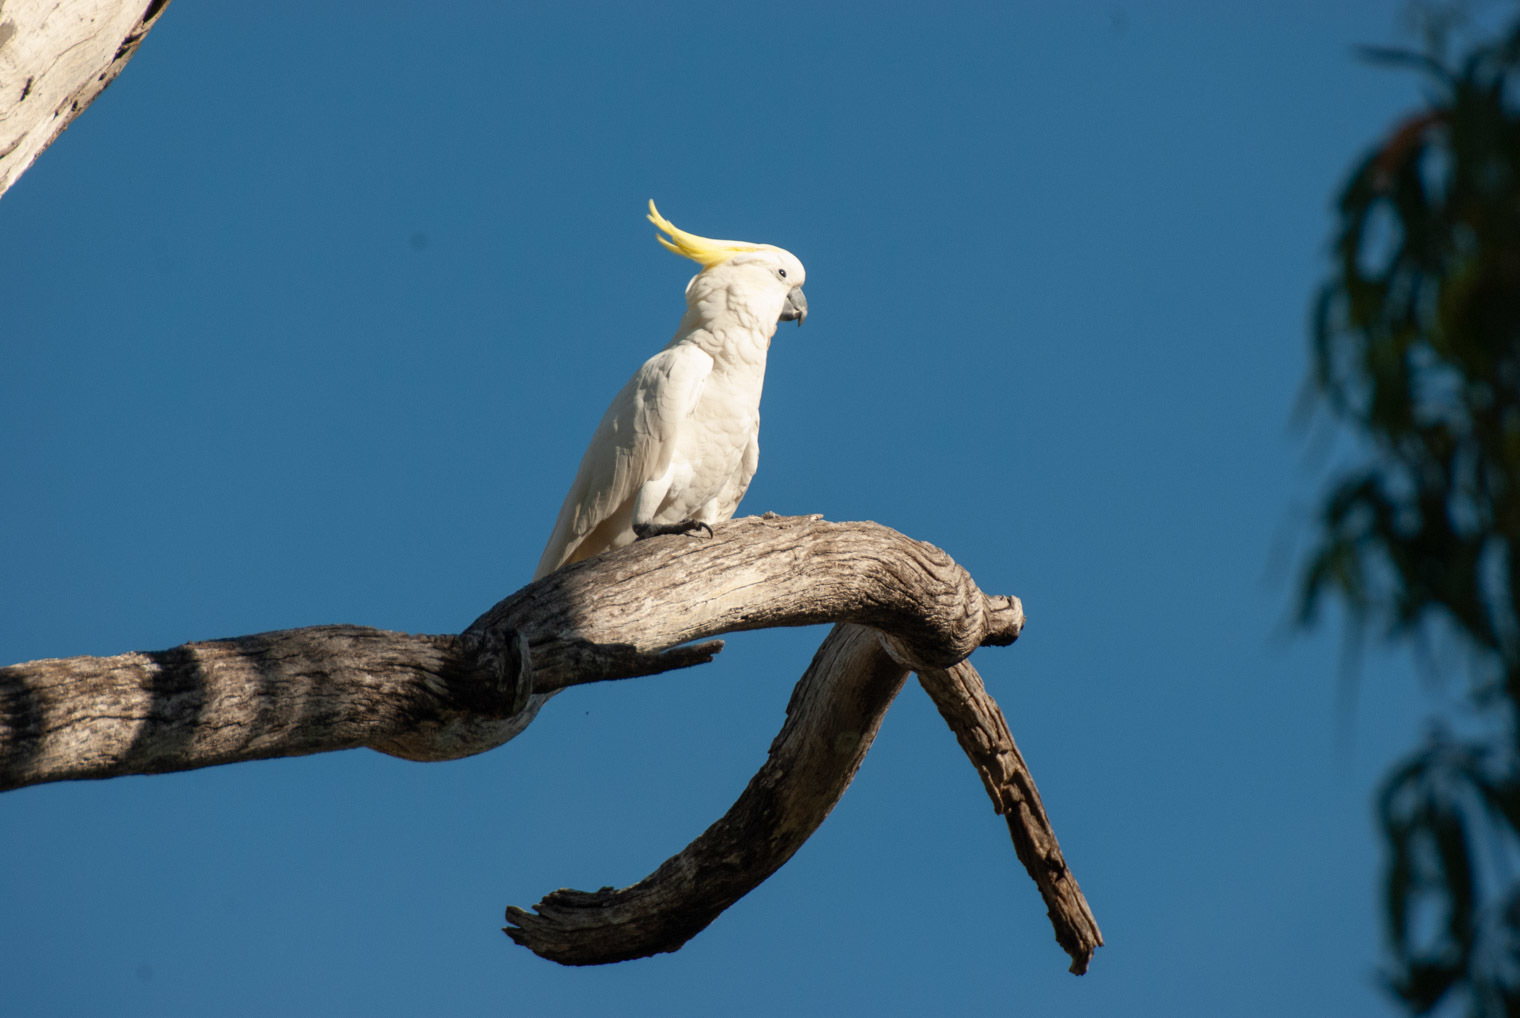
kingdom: Animalia
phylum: Chordata
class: Aves
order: Psittaciformes
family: Psittacidae
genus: Cacatua
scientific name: Cacatua galerita
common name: Sulphur-crested cockatoo
